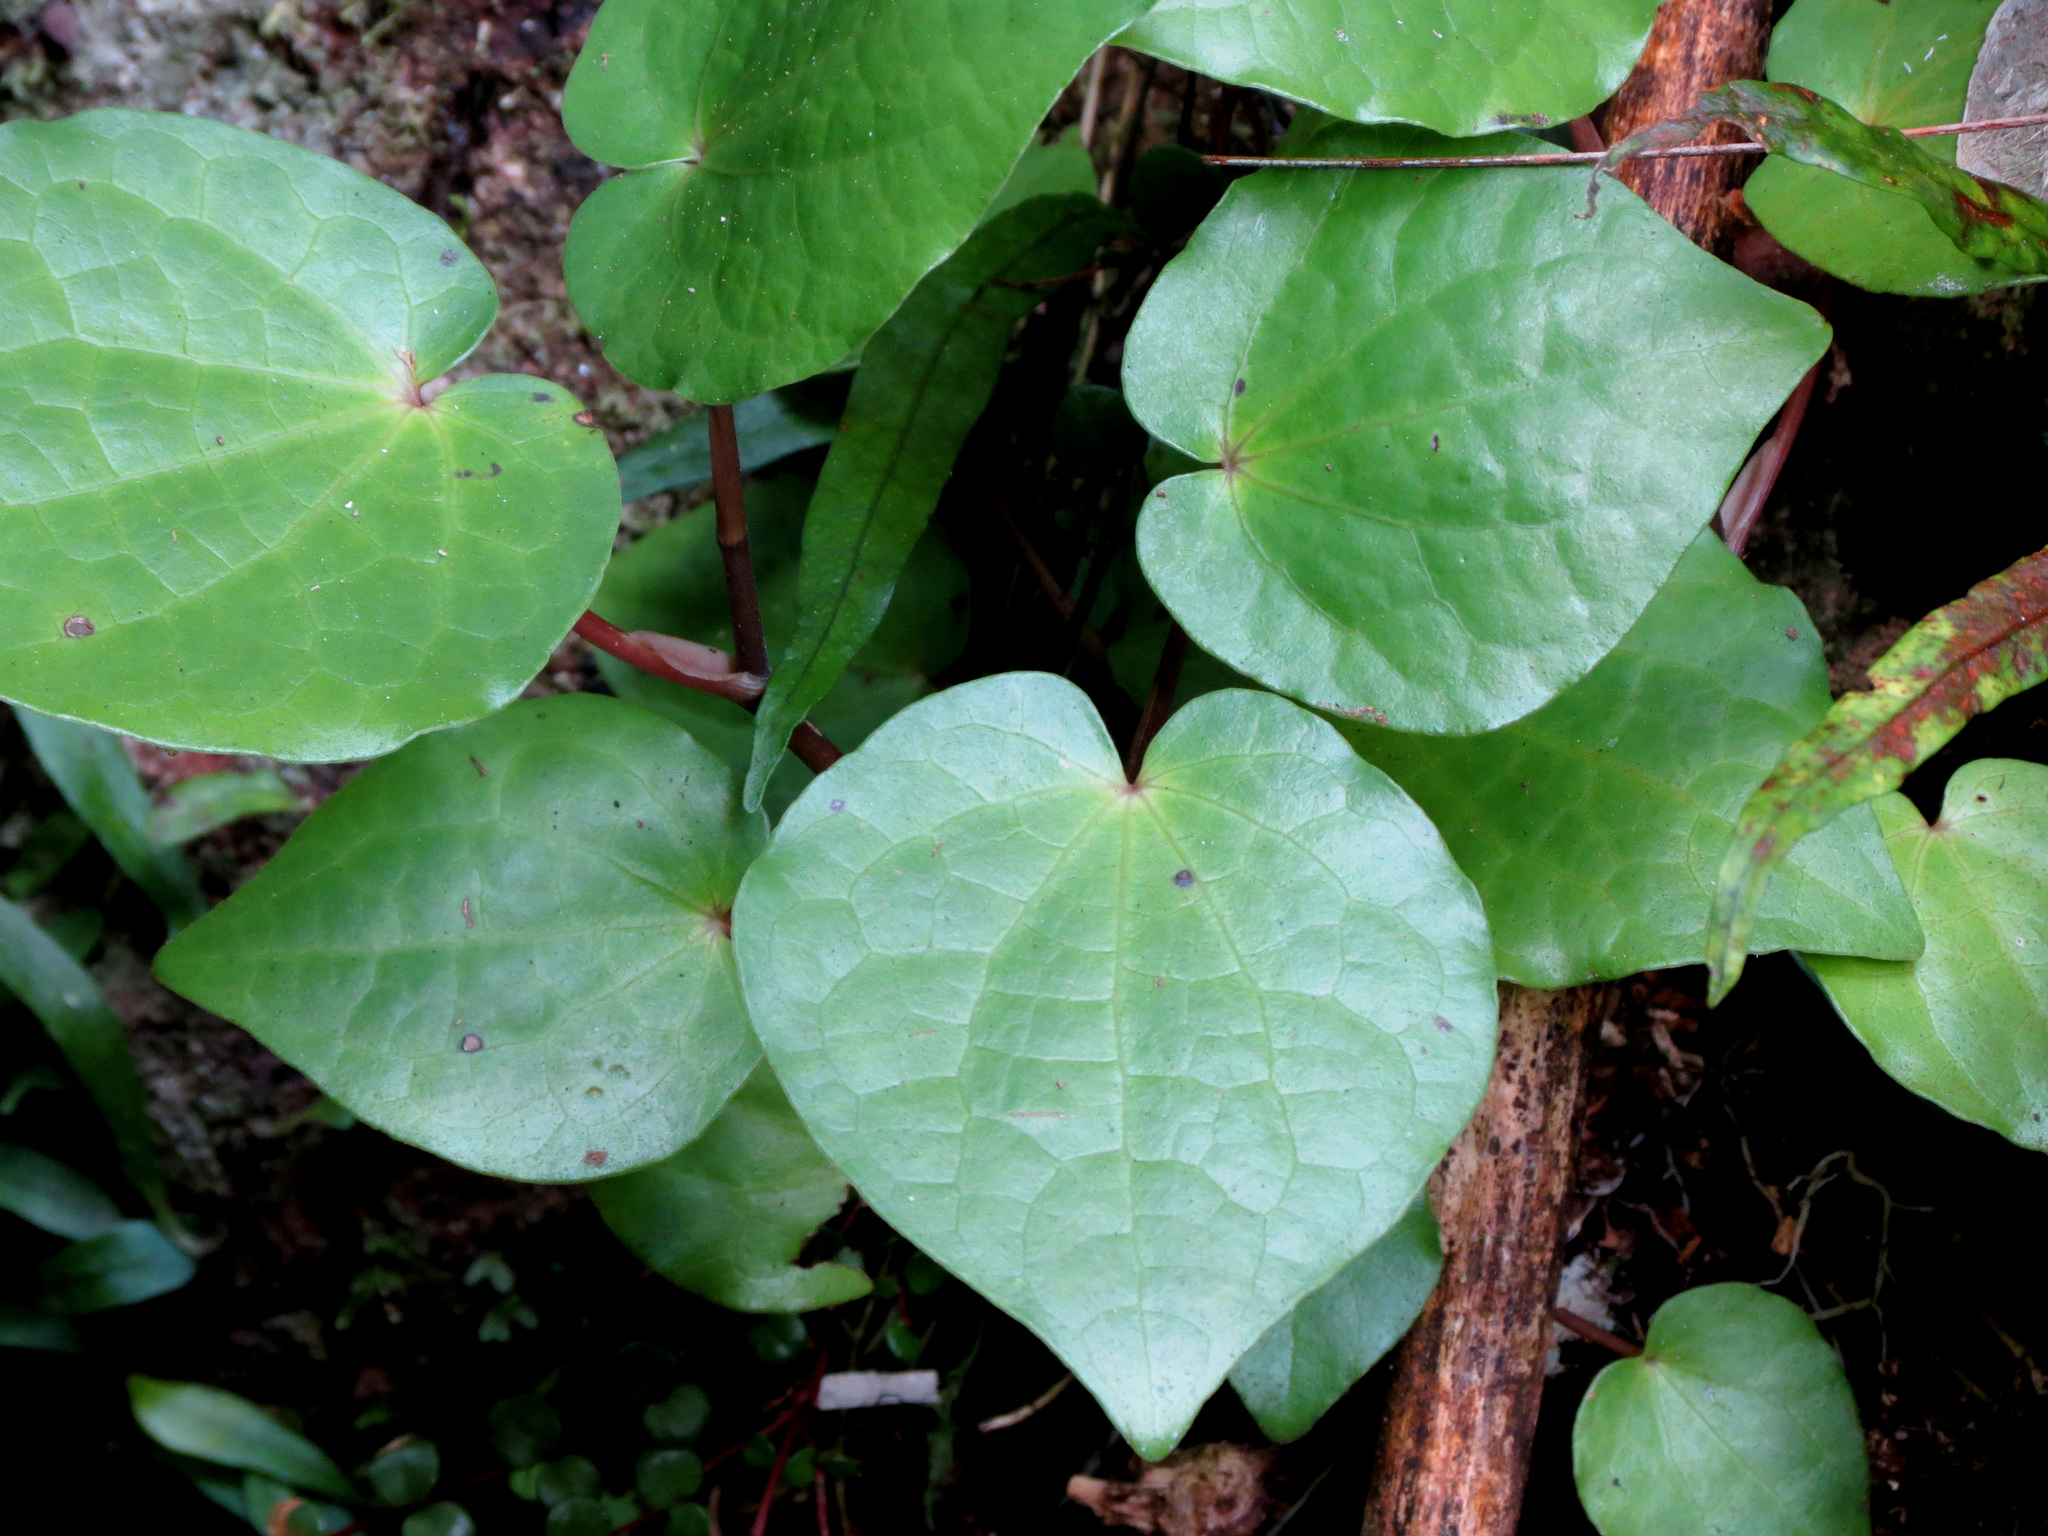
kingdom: Plantae
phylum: Tracheophyta
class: Magnoliopsida
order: Piperales
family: Piperaceae
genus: Macropiper
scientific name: Macropiper excelsum
